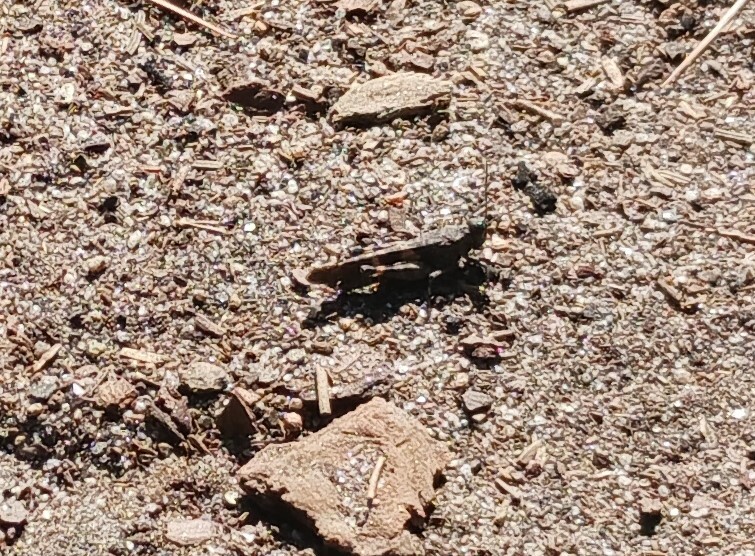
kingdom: Animalia
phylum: Arthropoda
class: Insecta
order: Orthoptera
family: Acrididae
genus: Trimerotropis
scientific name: Trimerotropis fontana
